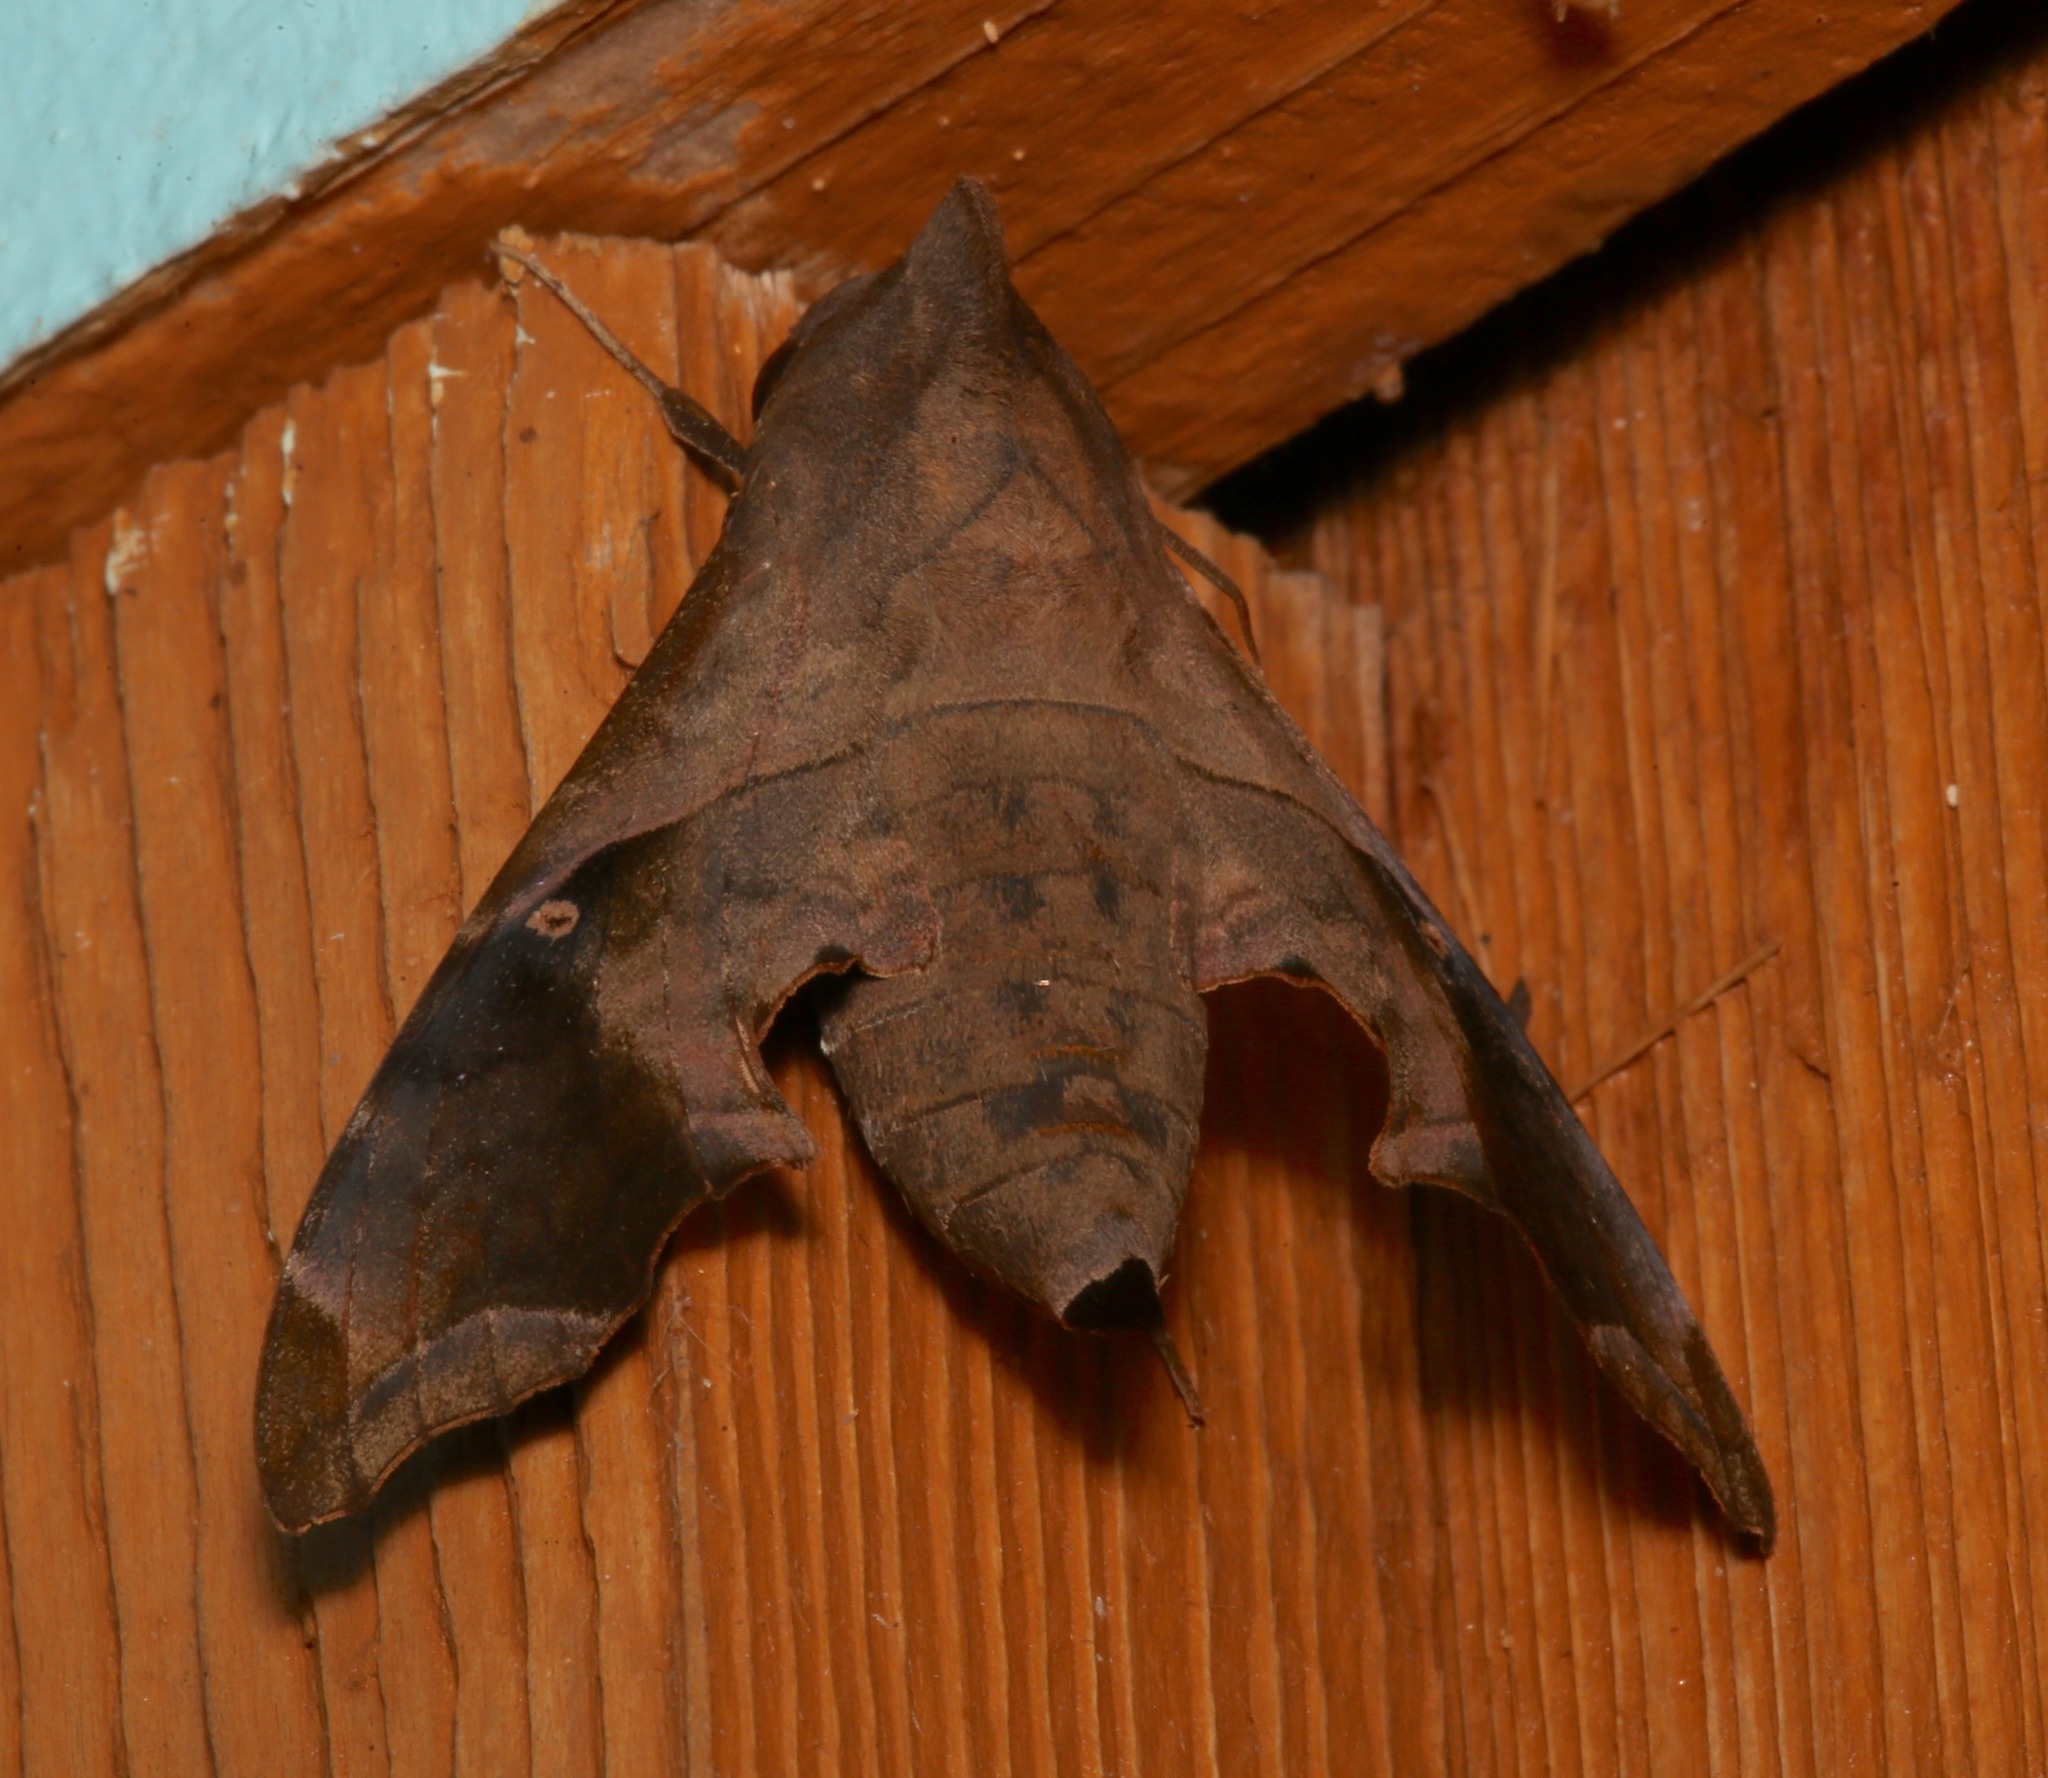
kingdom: Animalia
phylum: Arthropoda
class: Insecta
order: Lepidoptera
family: Sphingidae
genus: Enyo
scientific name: Enyo lugubris
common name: Mournful sphinx
